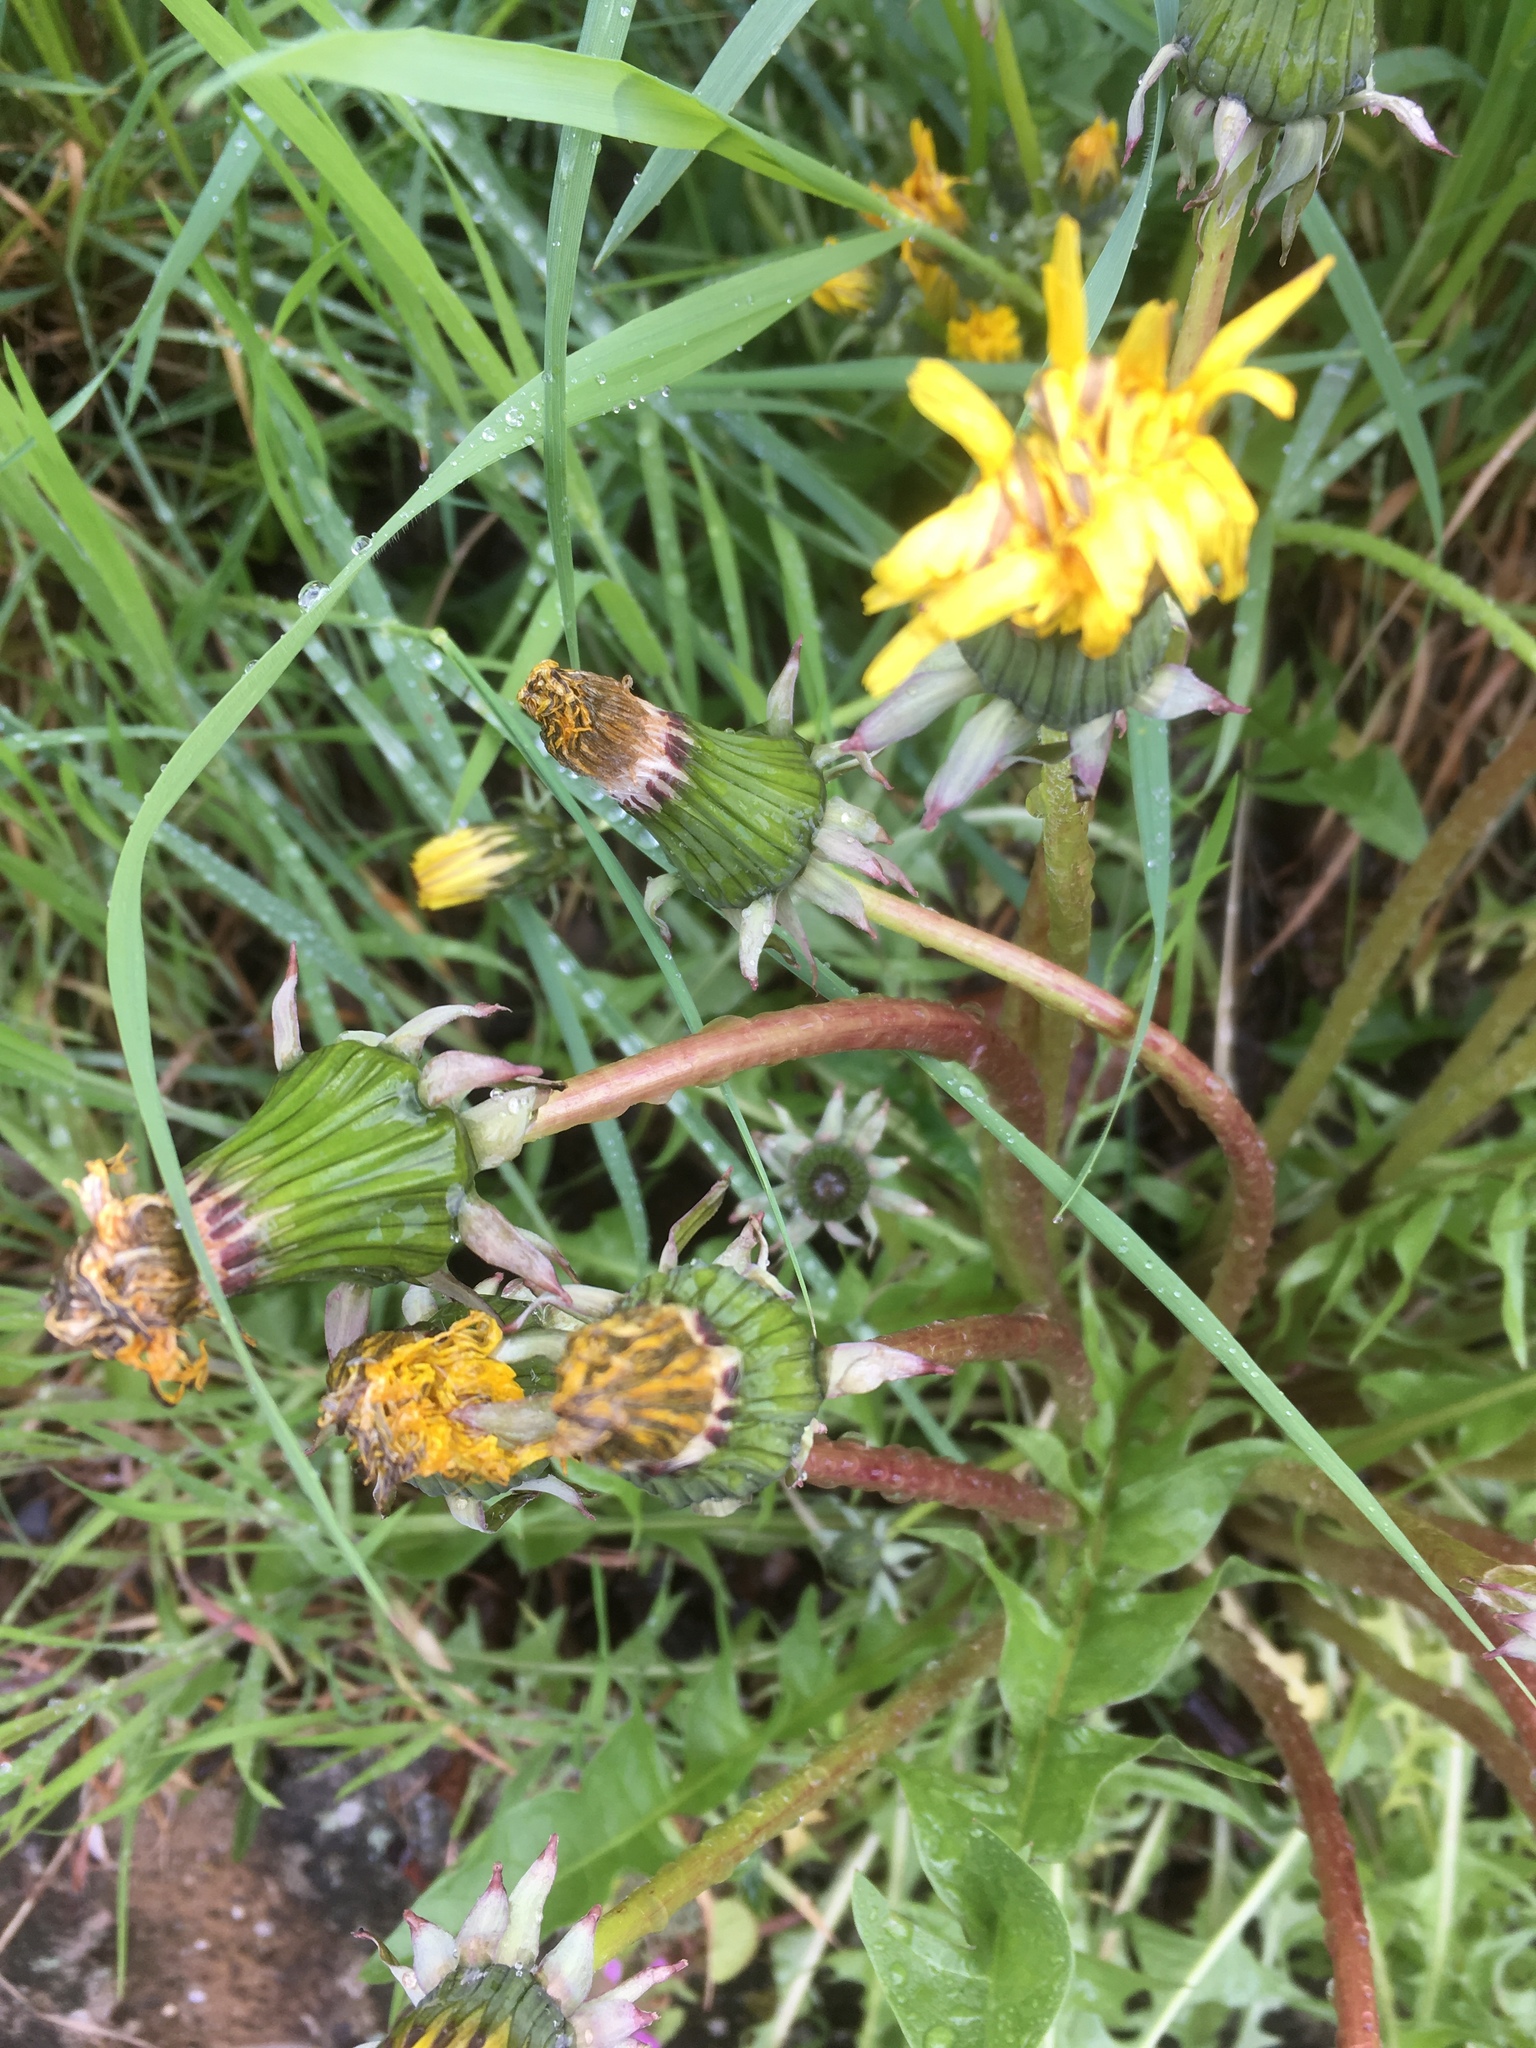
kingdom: Plantae
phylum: Tracheophyta
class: Magnoliopsida
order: Asterales
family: Asteraceae
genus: Taraxacum
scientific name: Taraxacum officinale
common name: Common dandelion
